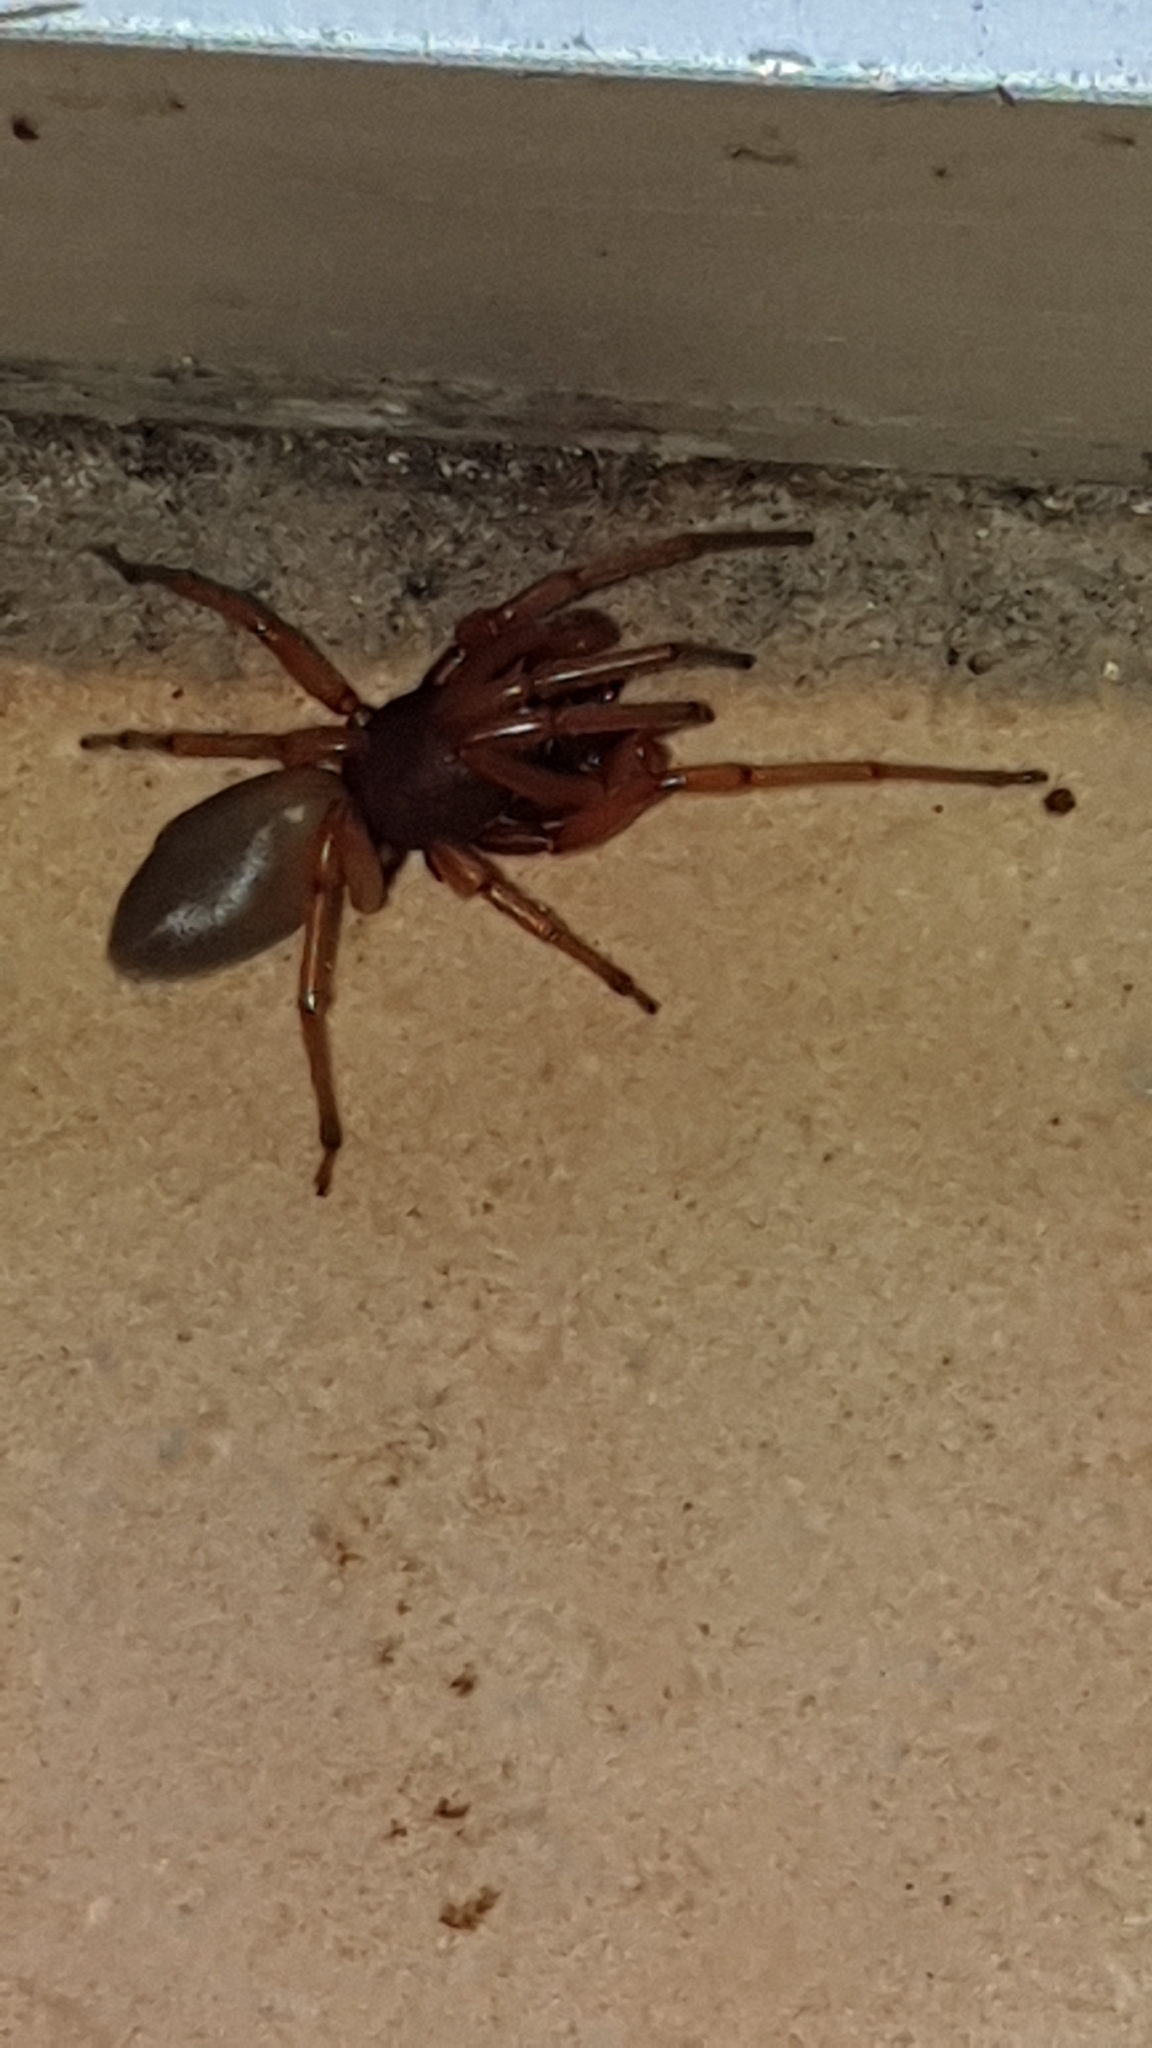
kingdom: Animalia
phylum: Arthropoda
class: Arachnida
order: Araneae
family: Dysderidae
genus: Dysdera
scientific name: Dysdera
